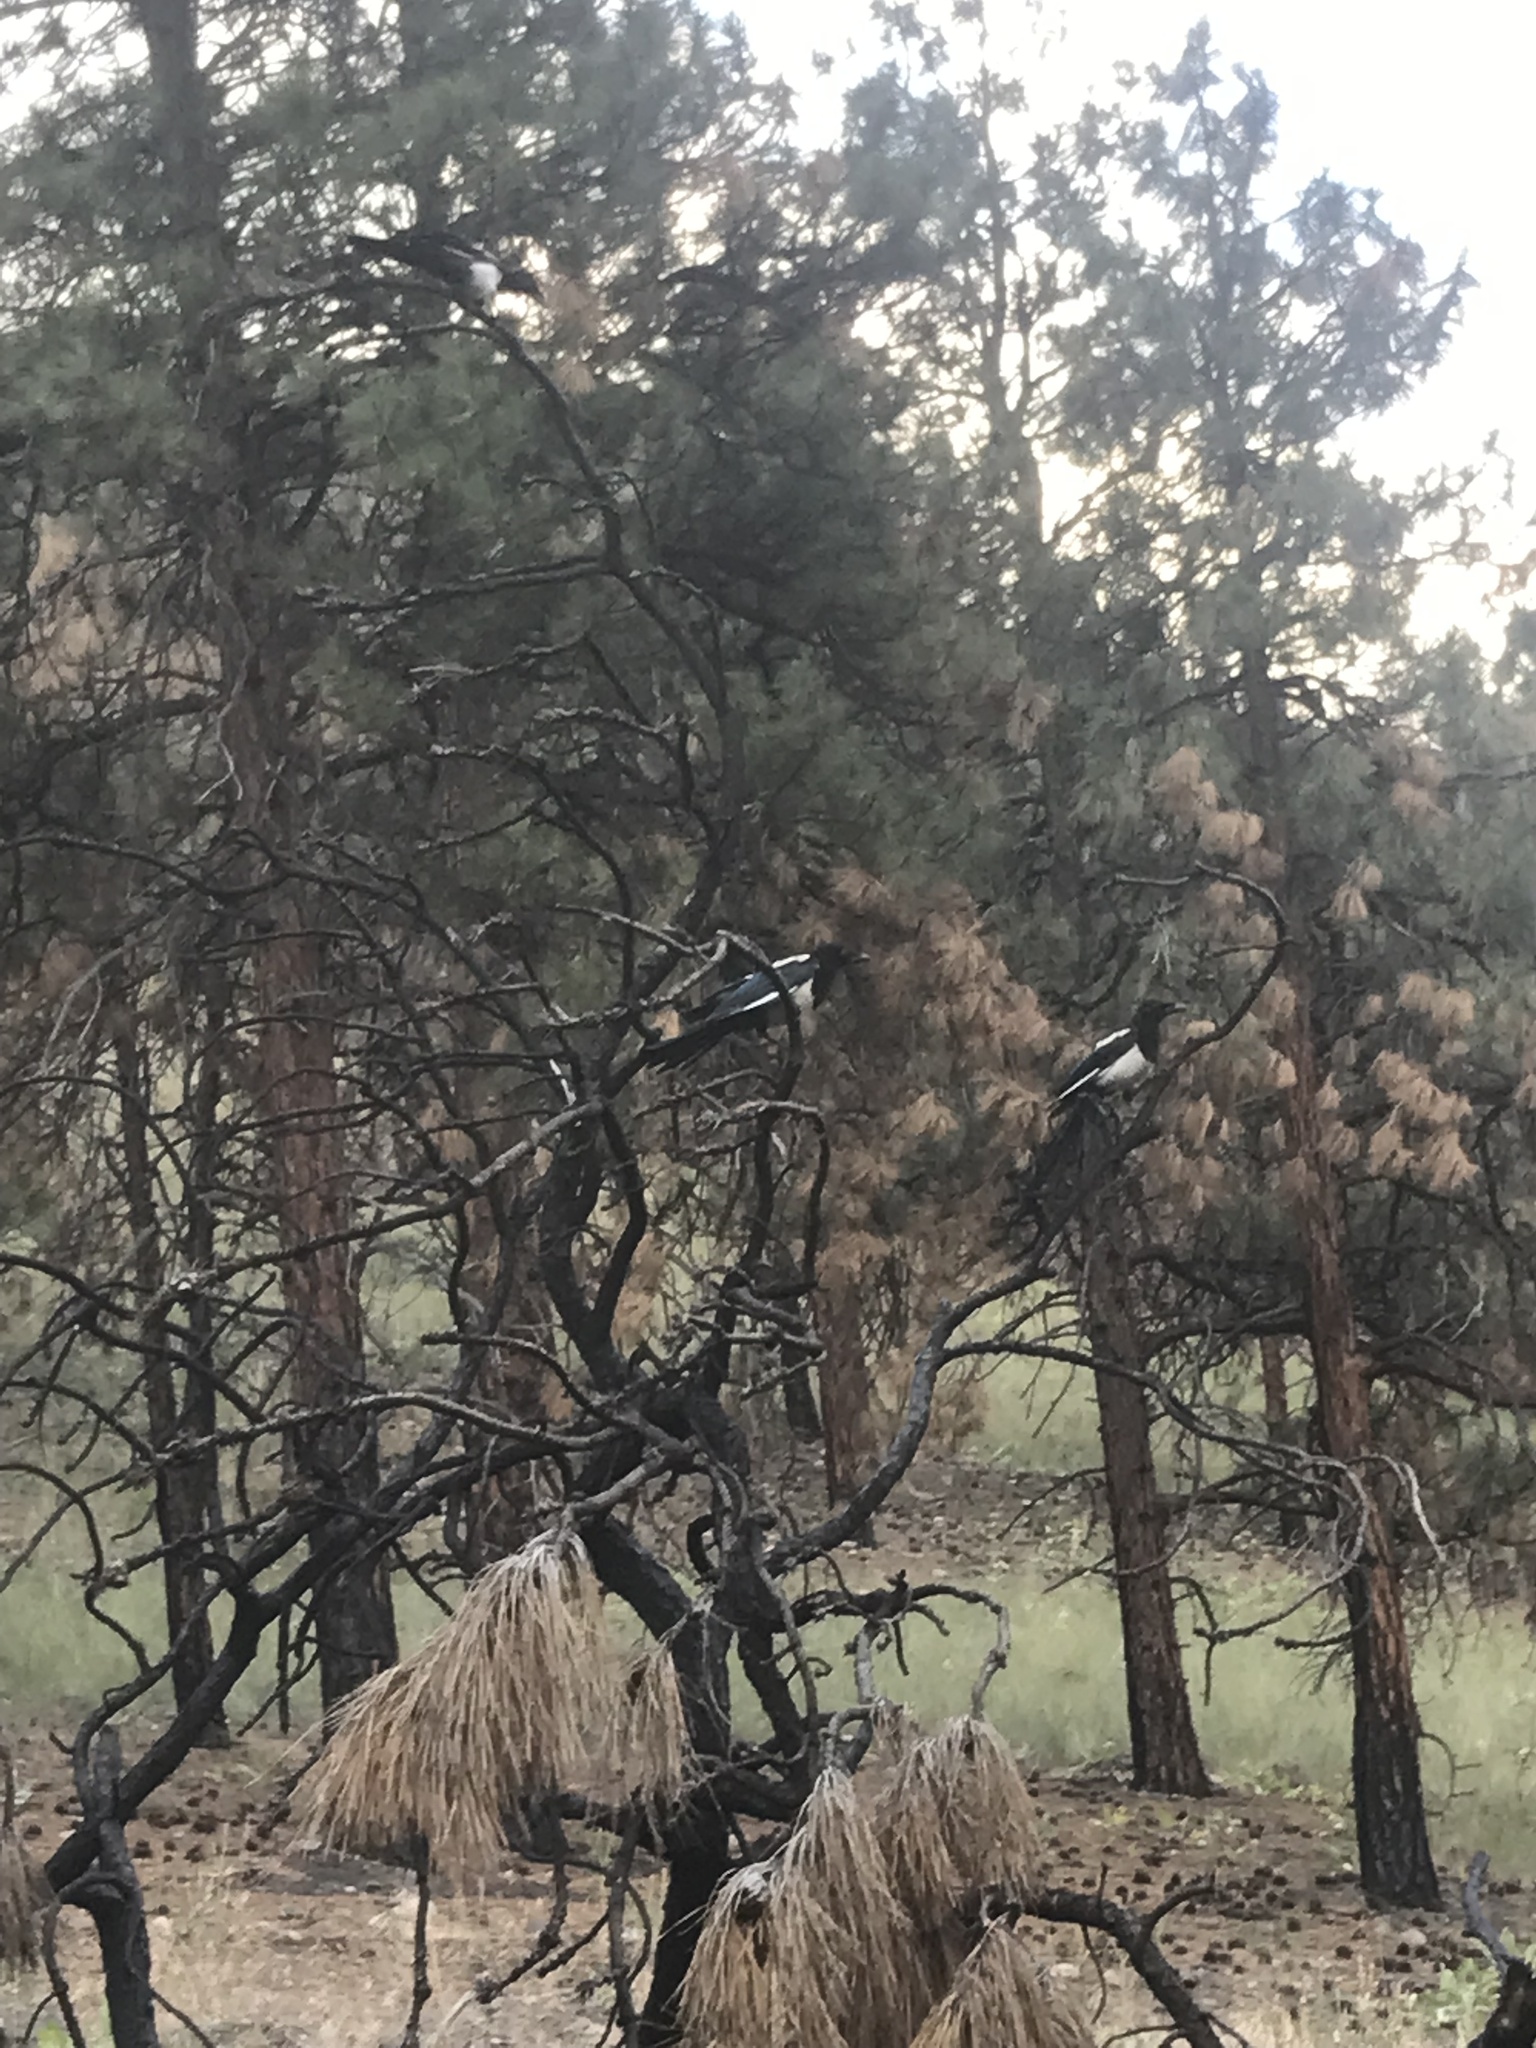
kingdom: Animalia
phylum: Chordata
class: Aves
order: Passeriformes
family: Corvidae
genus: Pica
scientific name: Pica hudsonia
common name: Black-billed magpie
